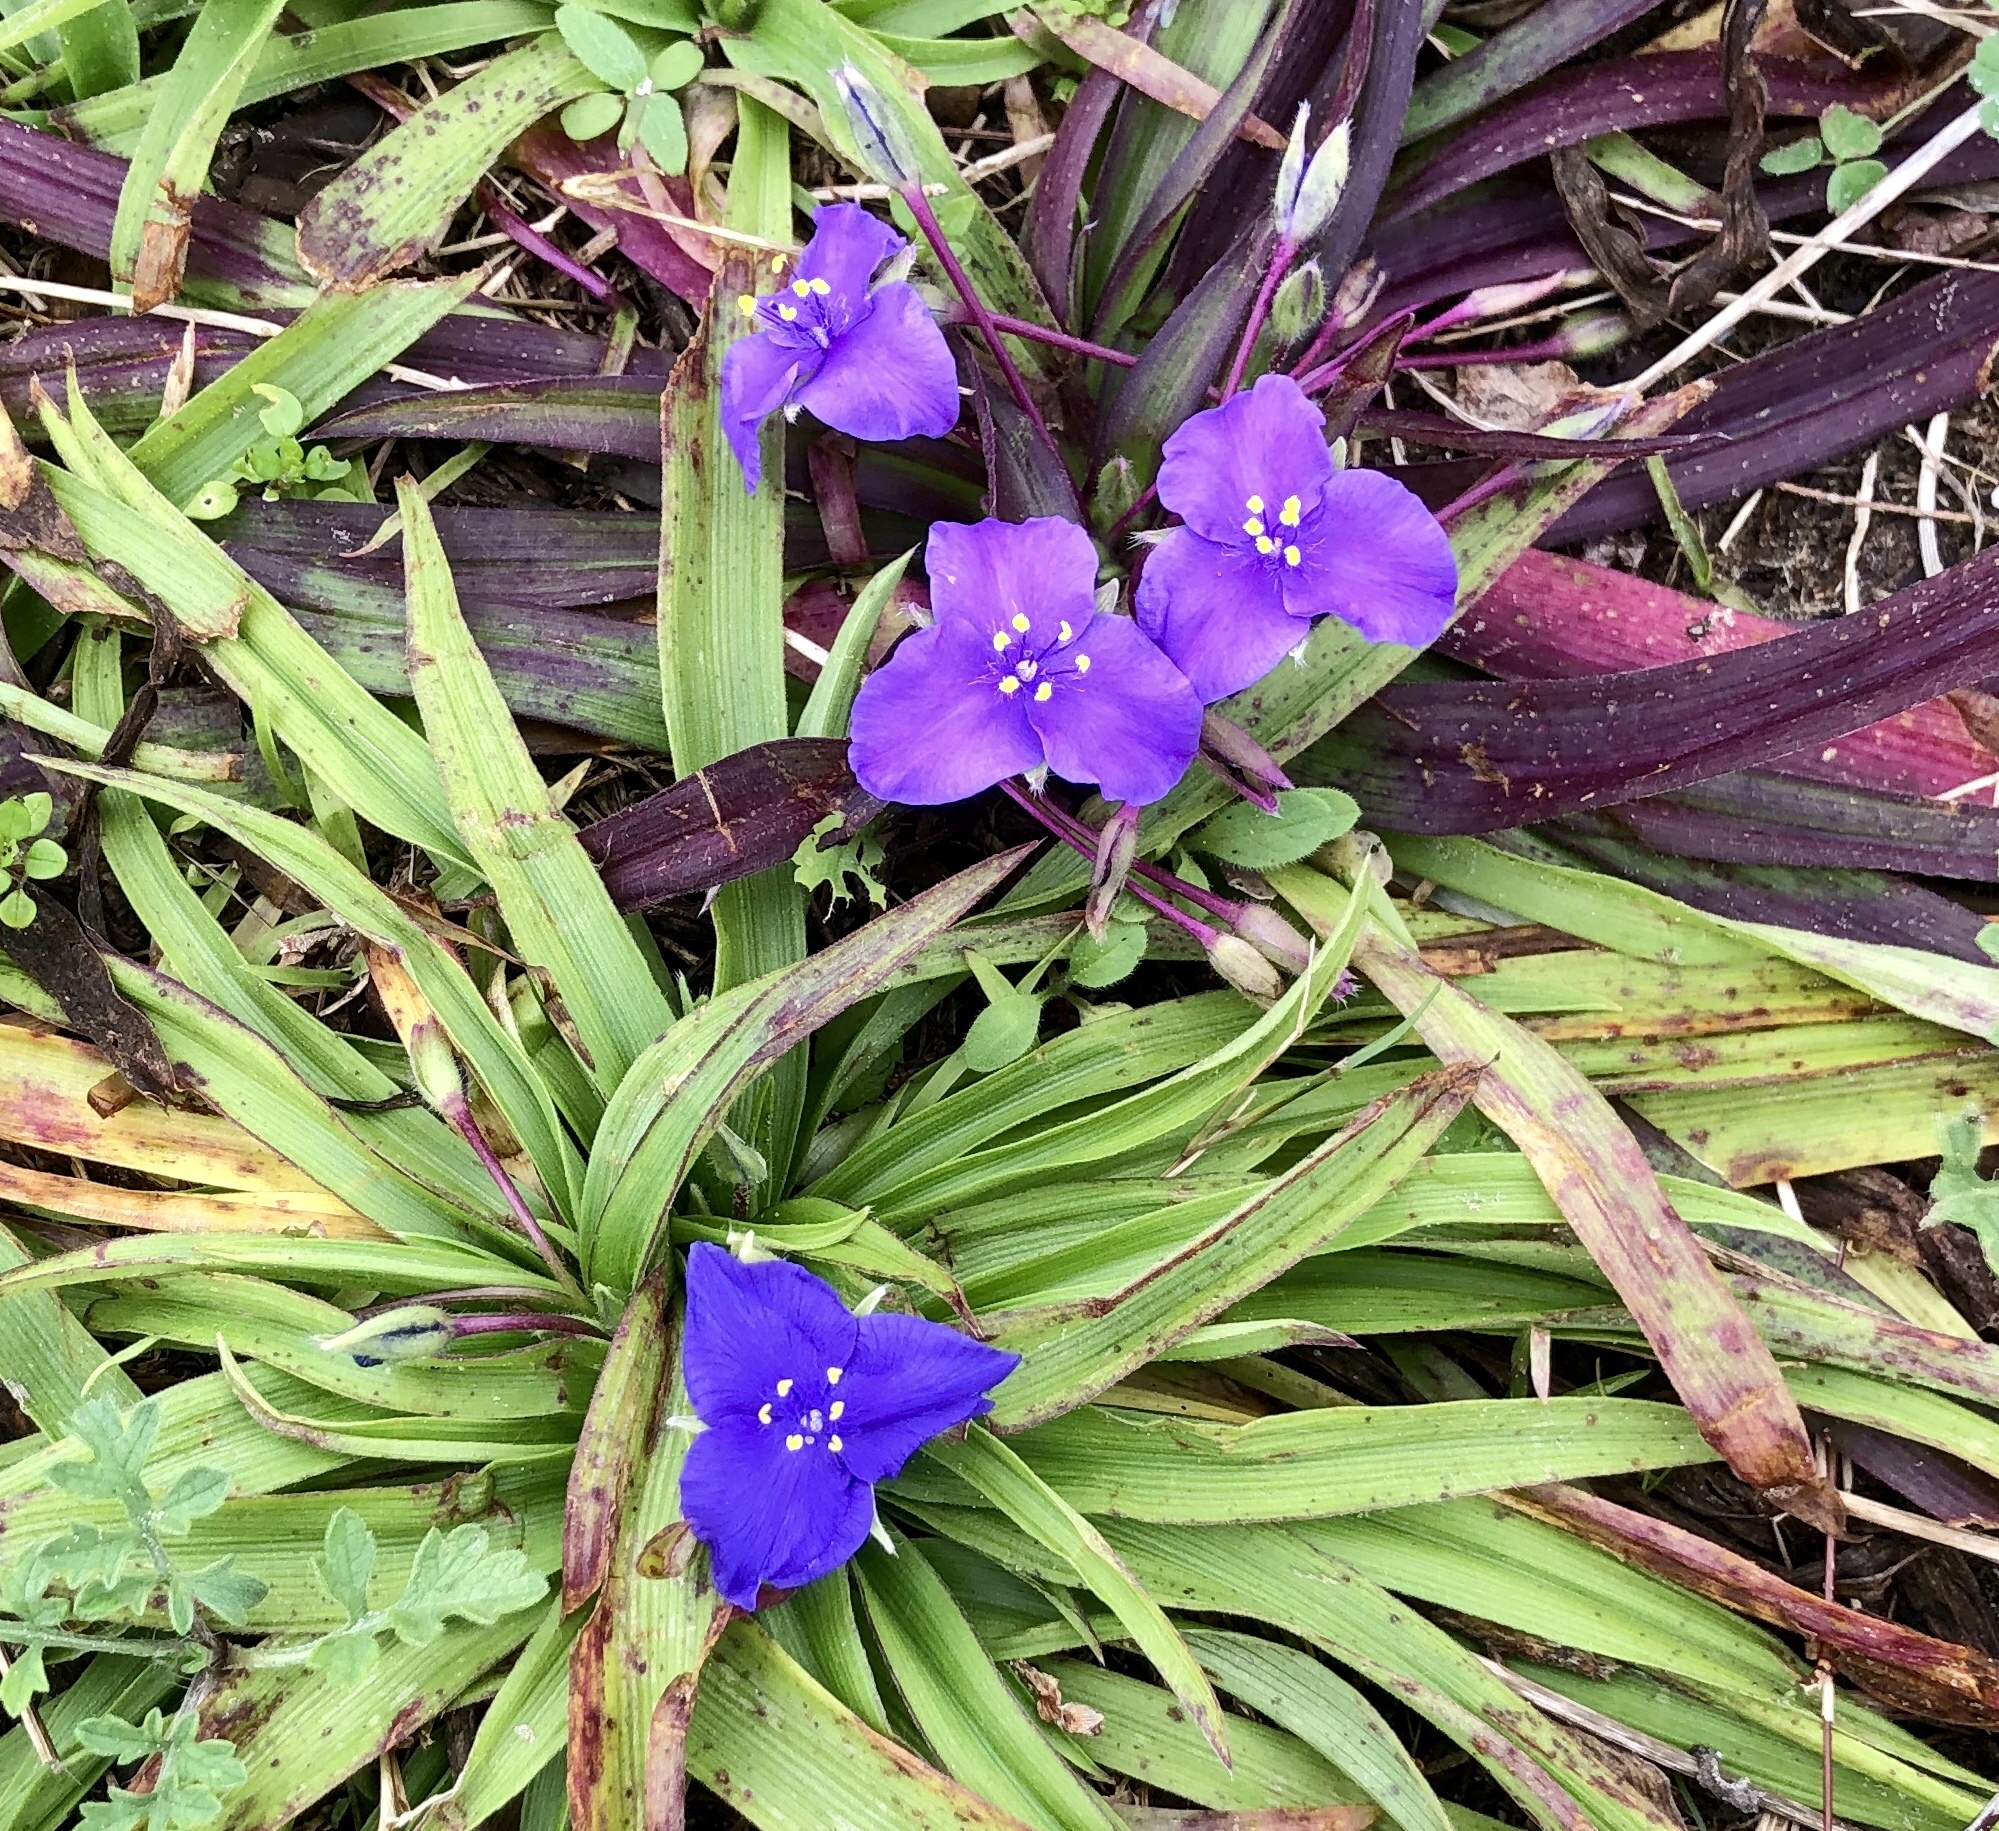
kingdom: Plantae
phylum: Tracheophyta
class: Liliopsida
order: Commelinales
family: Commelinaceae
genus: Tradescantia
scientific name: Tradescantia hirsutiflora
